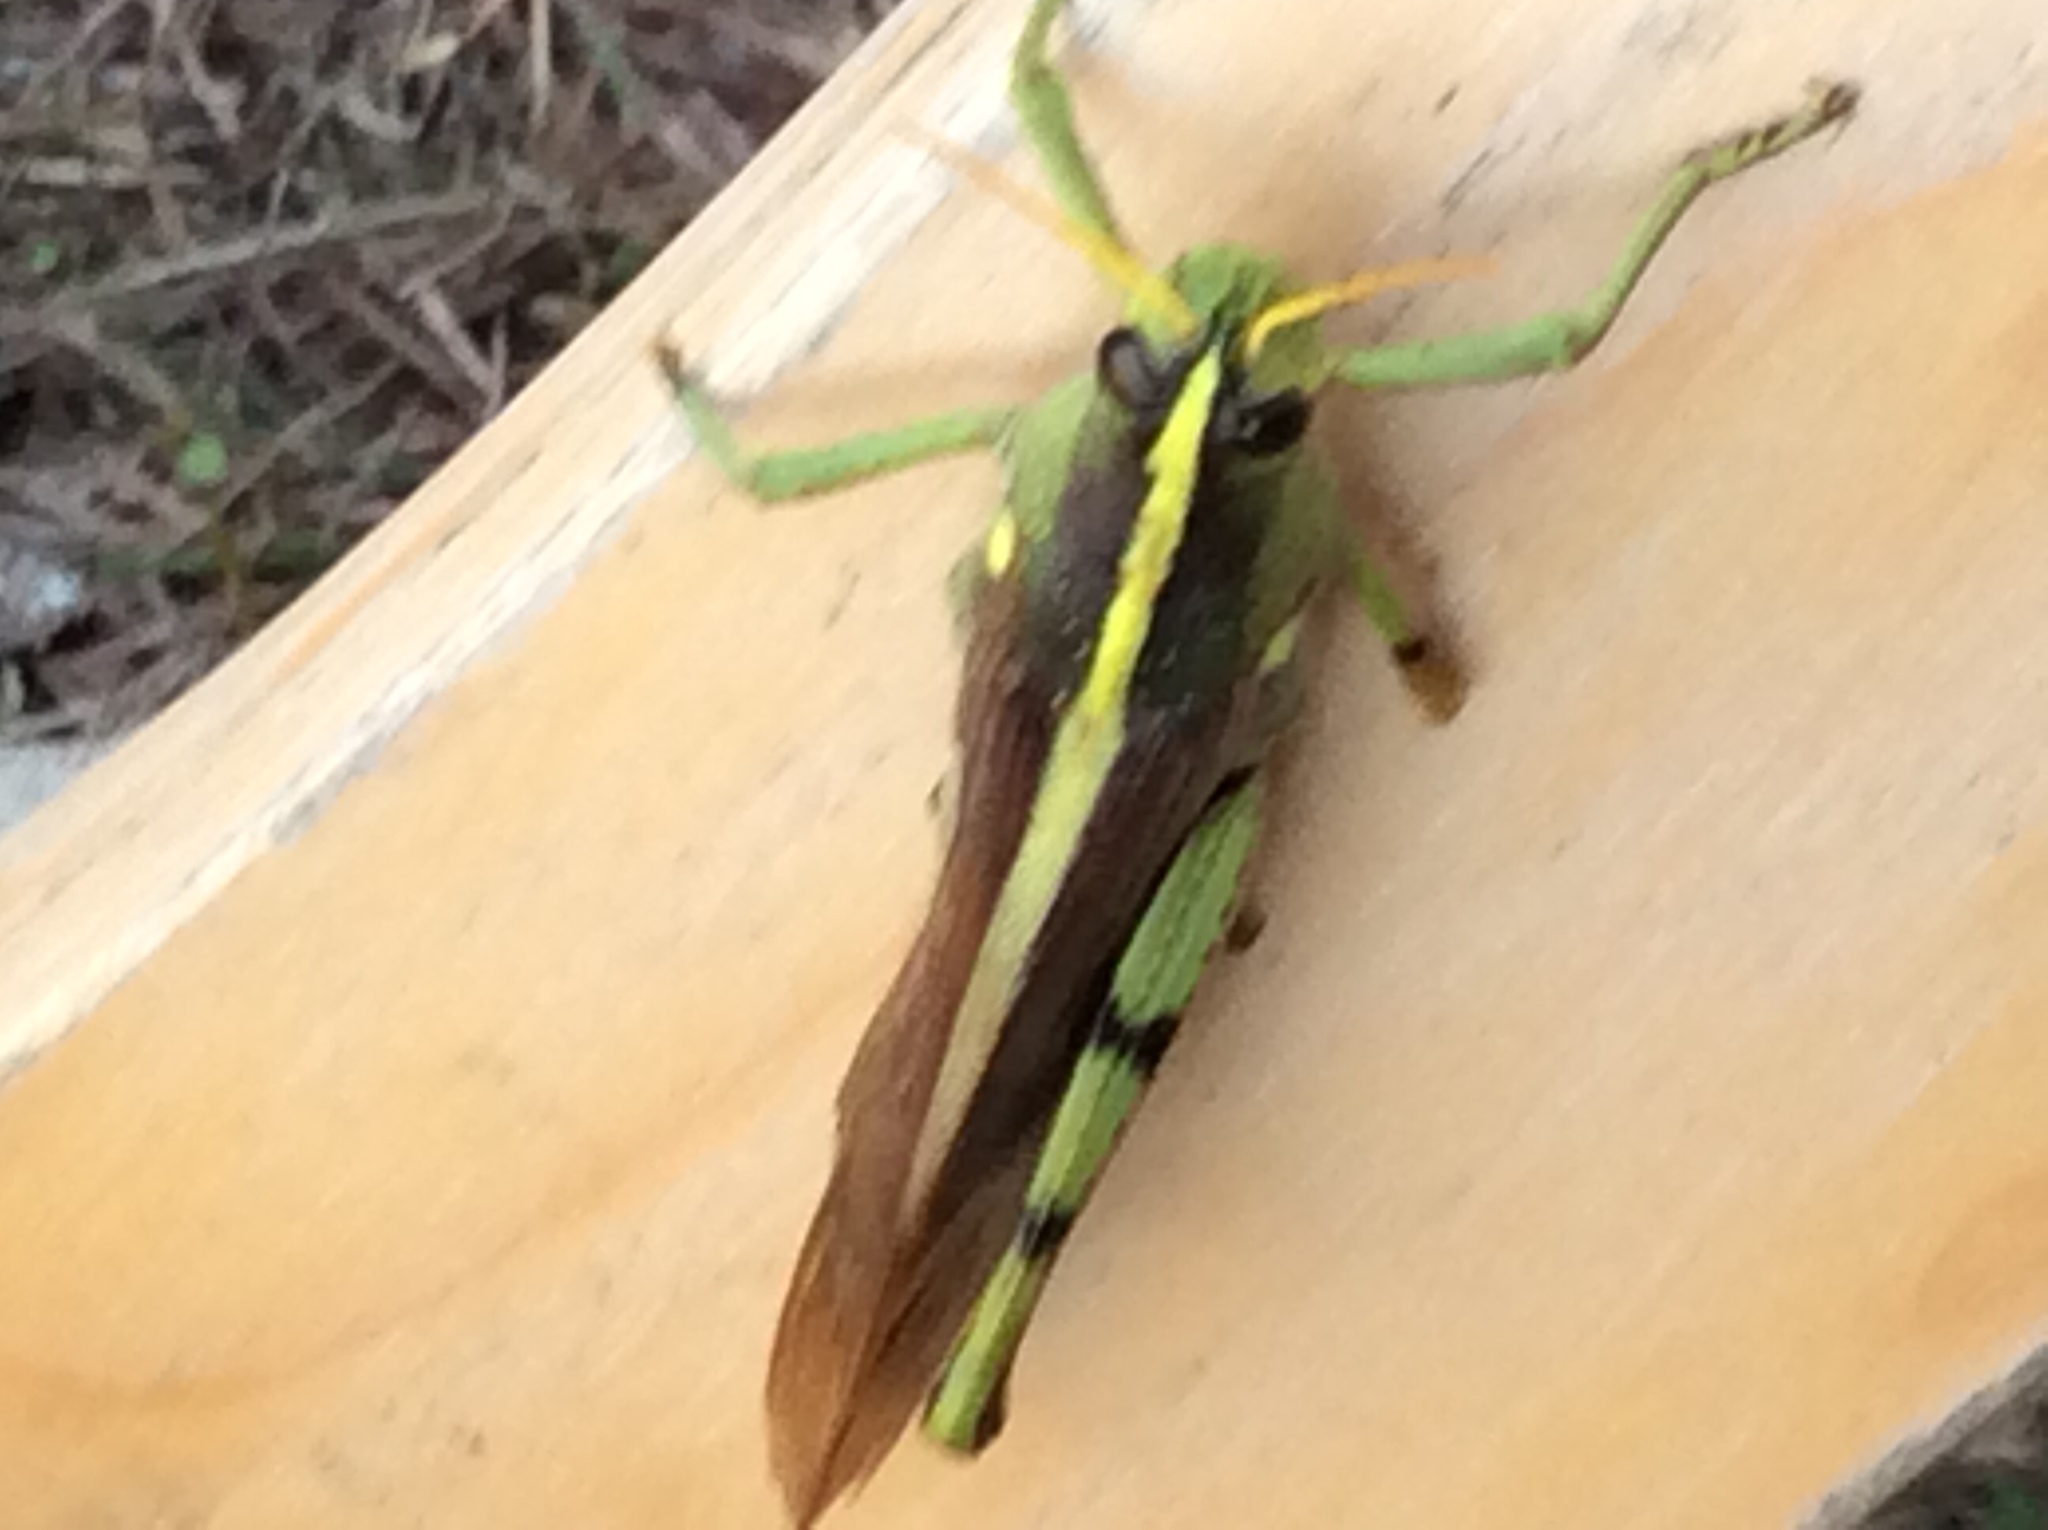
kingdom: Animalia
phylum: Arthropoda
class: Insecta
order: Orthoptera
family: Acrididae
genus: Schistocerca
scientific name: Schistocerca obscura
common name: Obscure bird grasshopper
